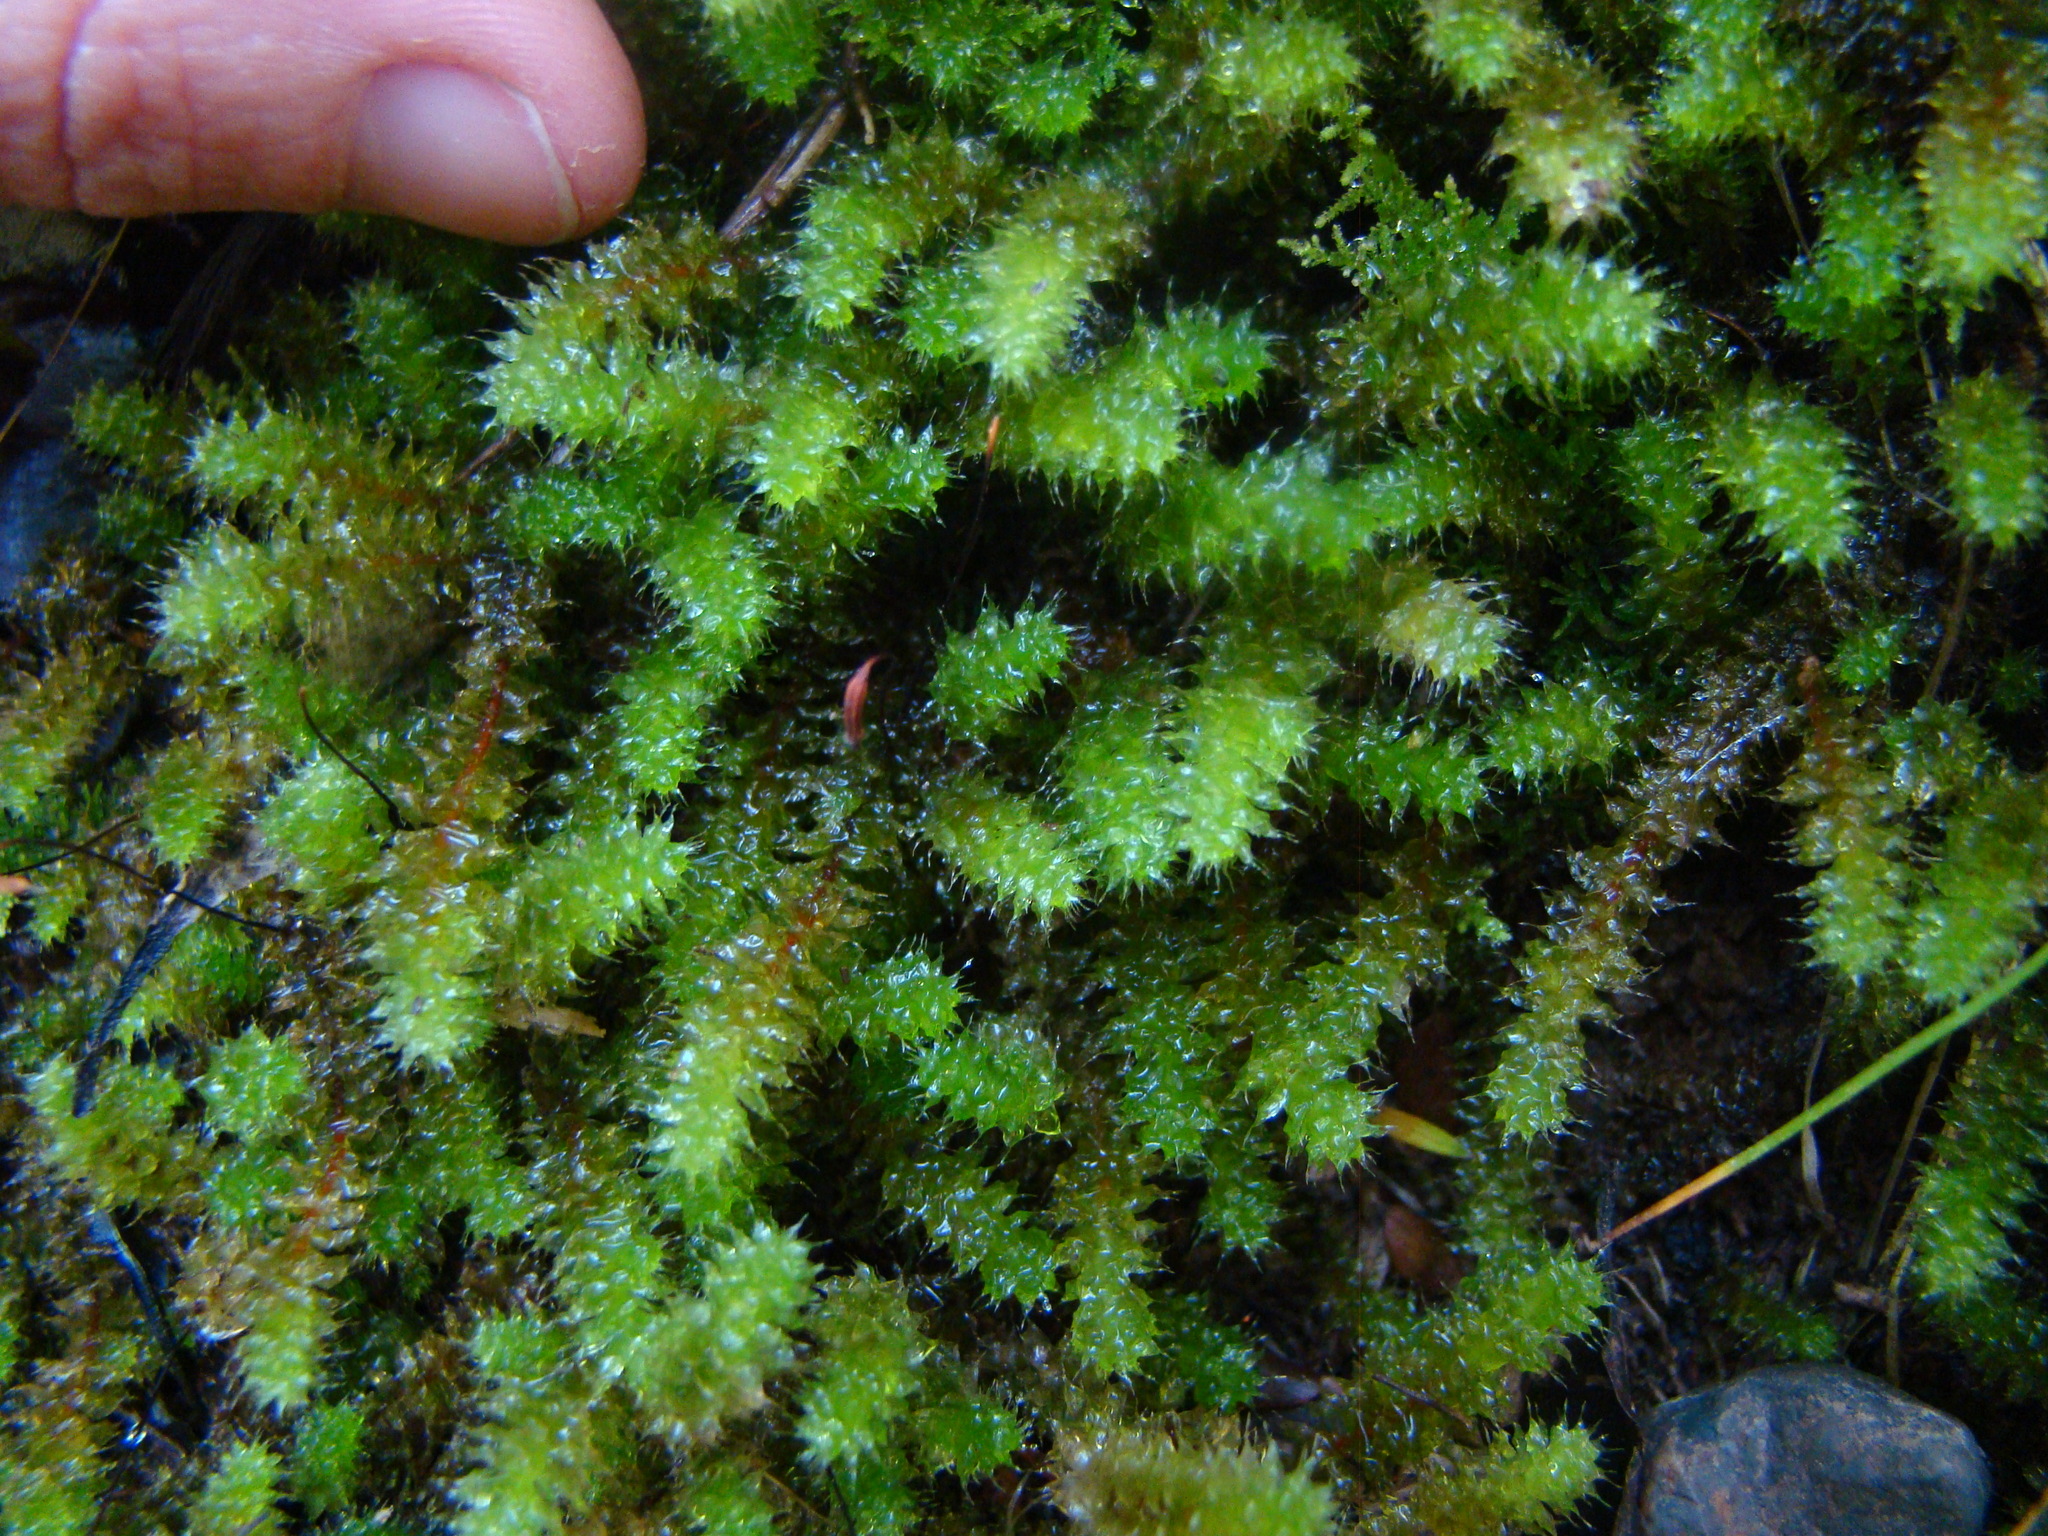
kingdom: Plantae
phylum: Bryophyta
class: Bryopsida
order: Ptychomniales
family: Ptychomniaceae
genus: Ptychomnion
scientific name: Ptychomnion aciculare
